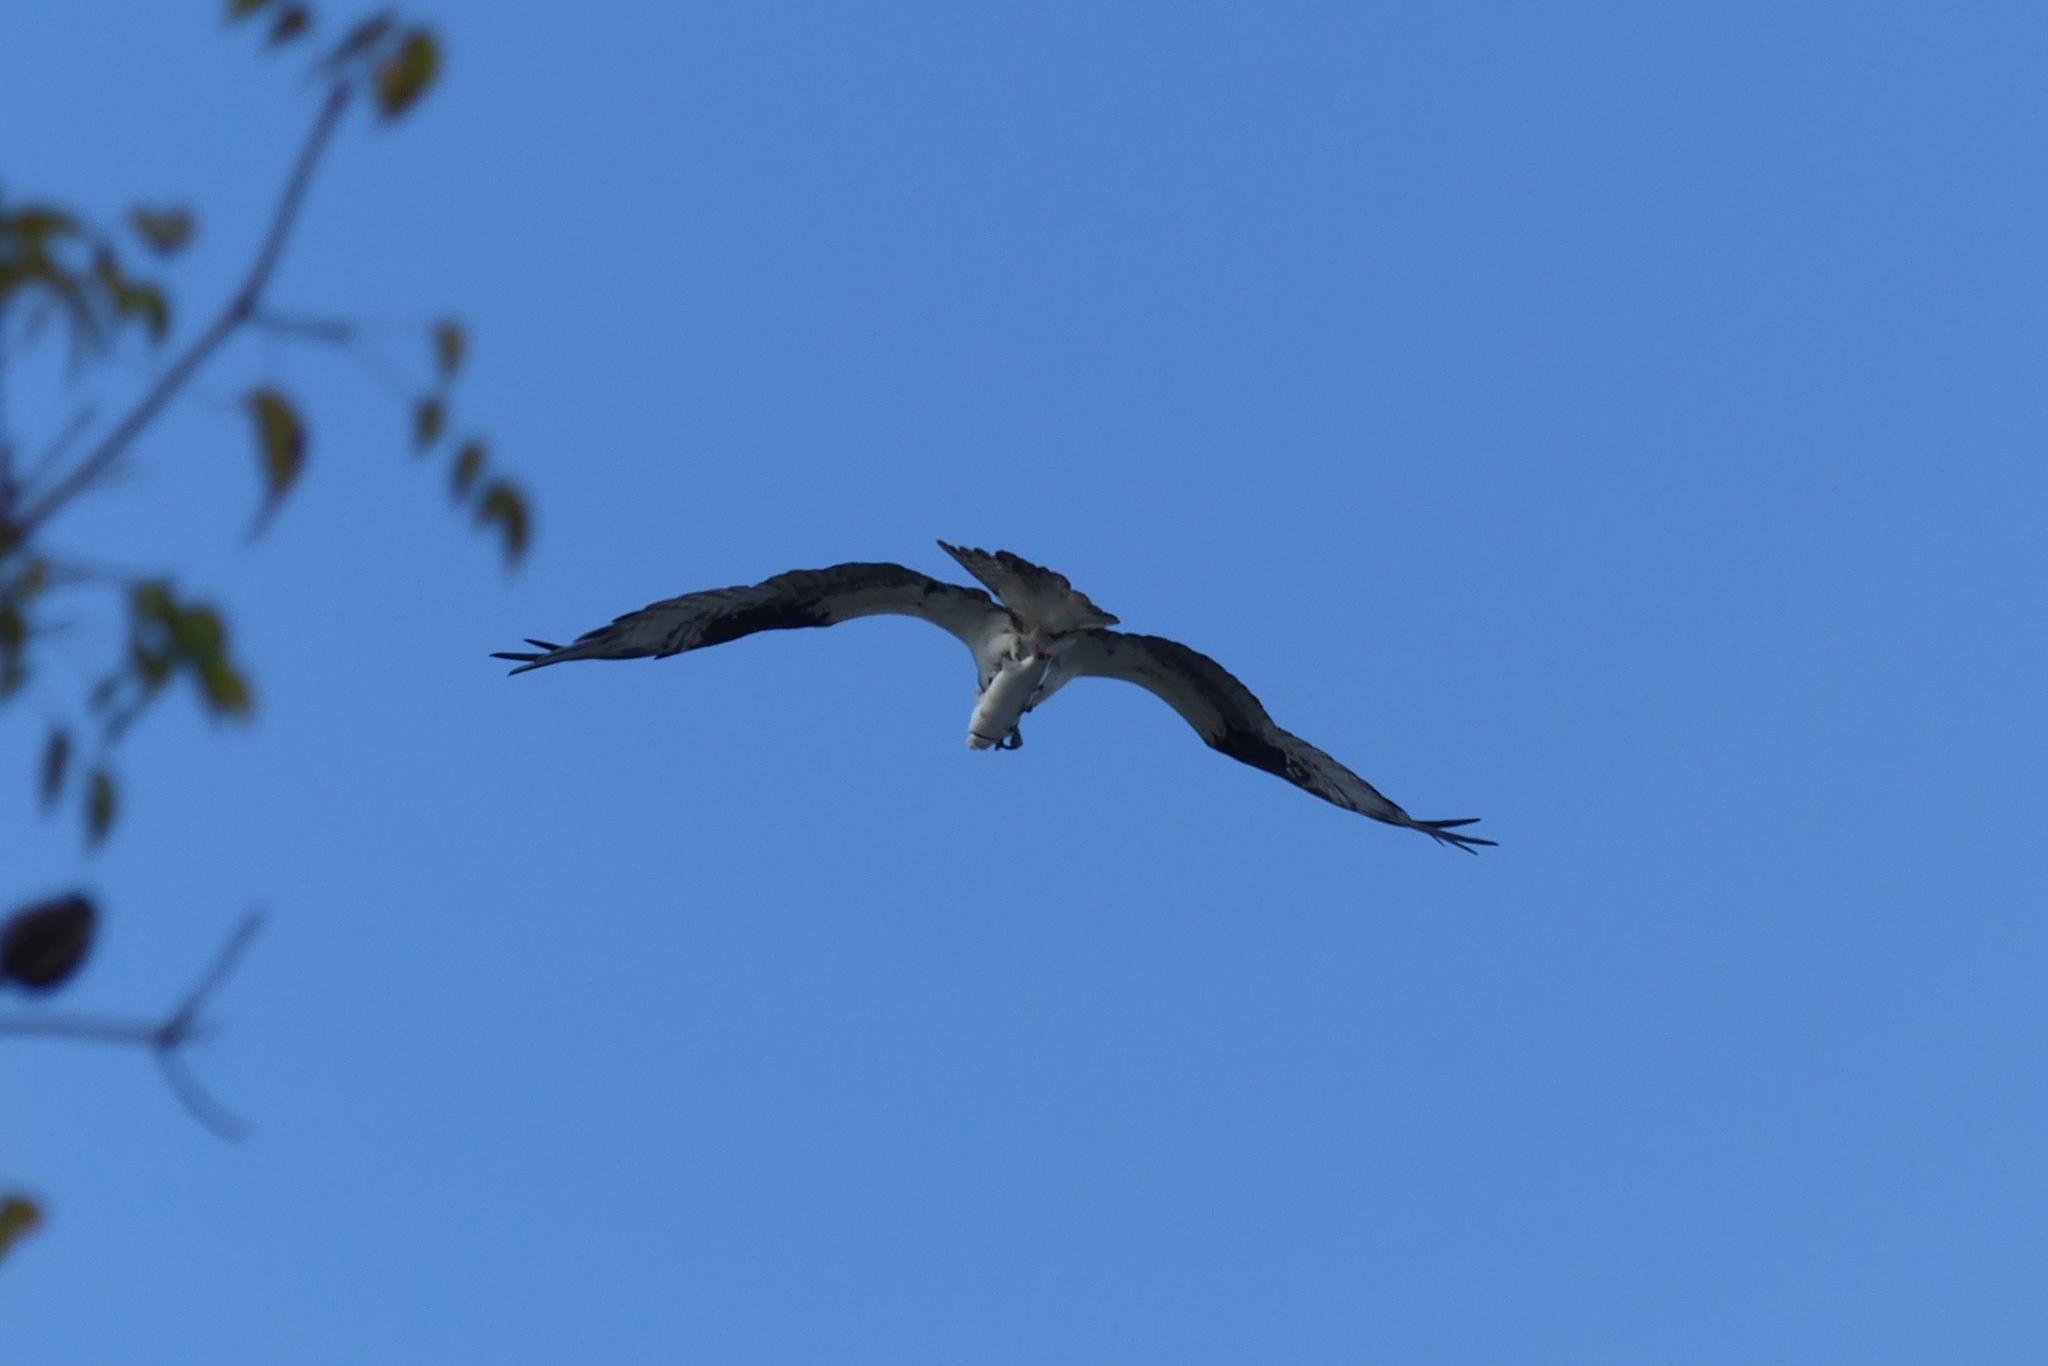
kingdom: Animalia
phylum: Chordata
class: Aves
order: Accipitriformes
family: Pandionidae
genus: Pandion
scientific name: Pandion haliaetus
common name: Osprey
